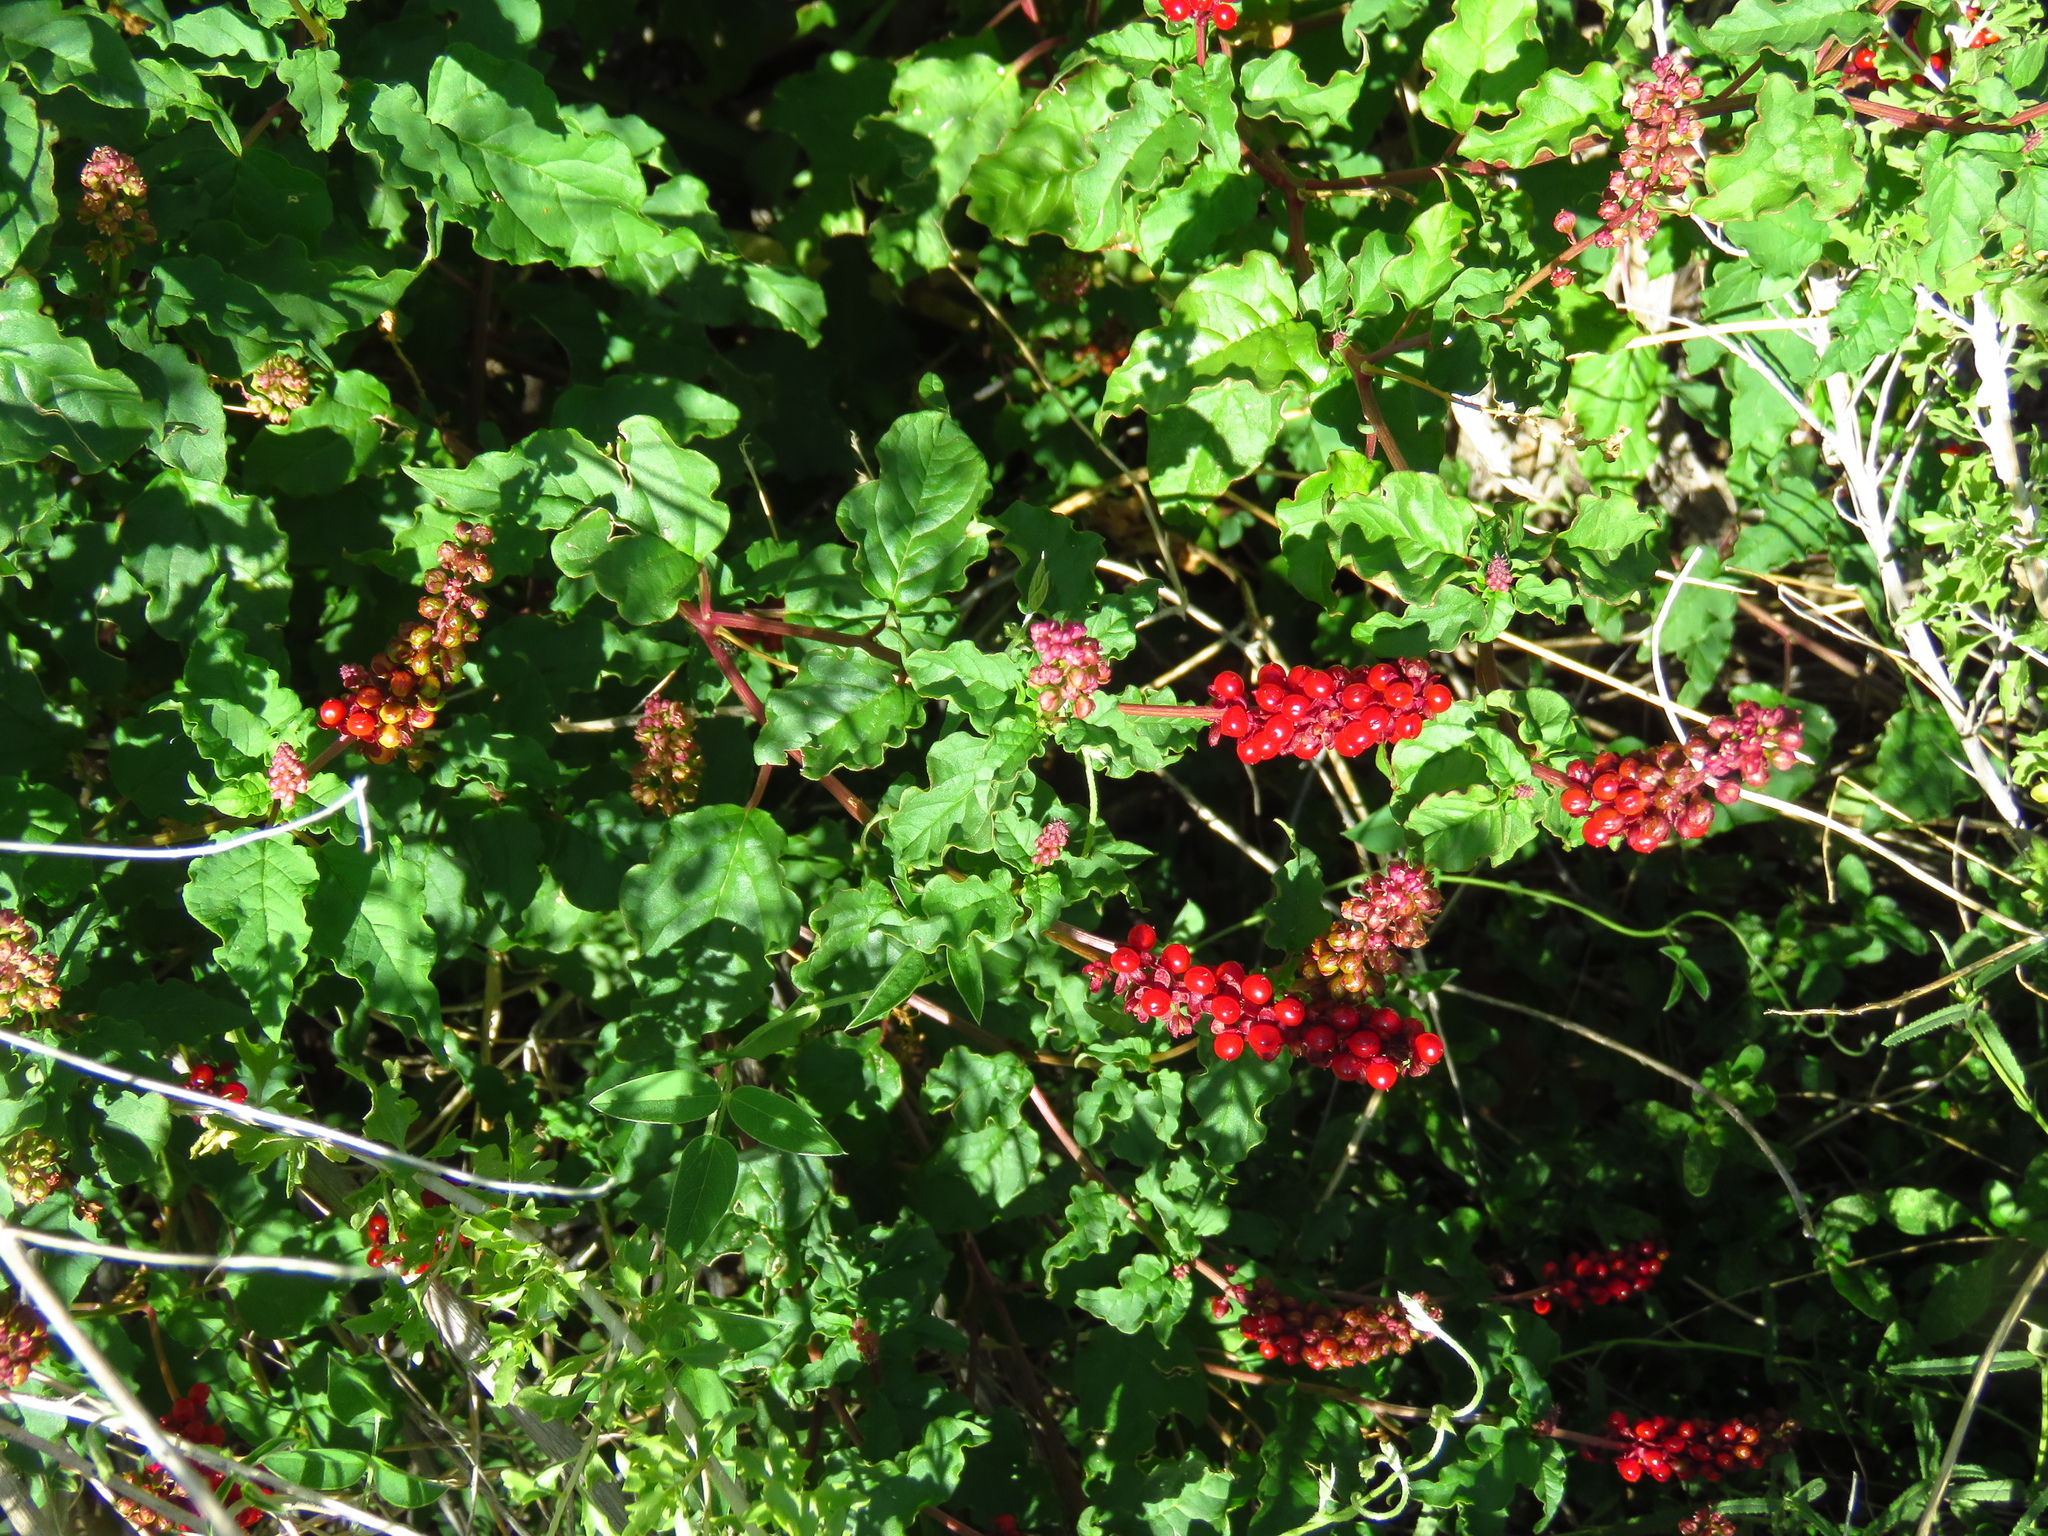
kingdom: Plantae
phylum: Tracheophyta
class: Magnoliopsida
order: Caryophyllales
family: Phytolaccaceae
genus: Rivina
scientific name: Rivina humilis
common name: Rougeplant
